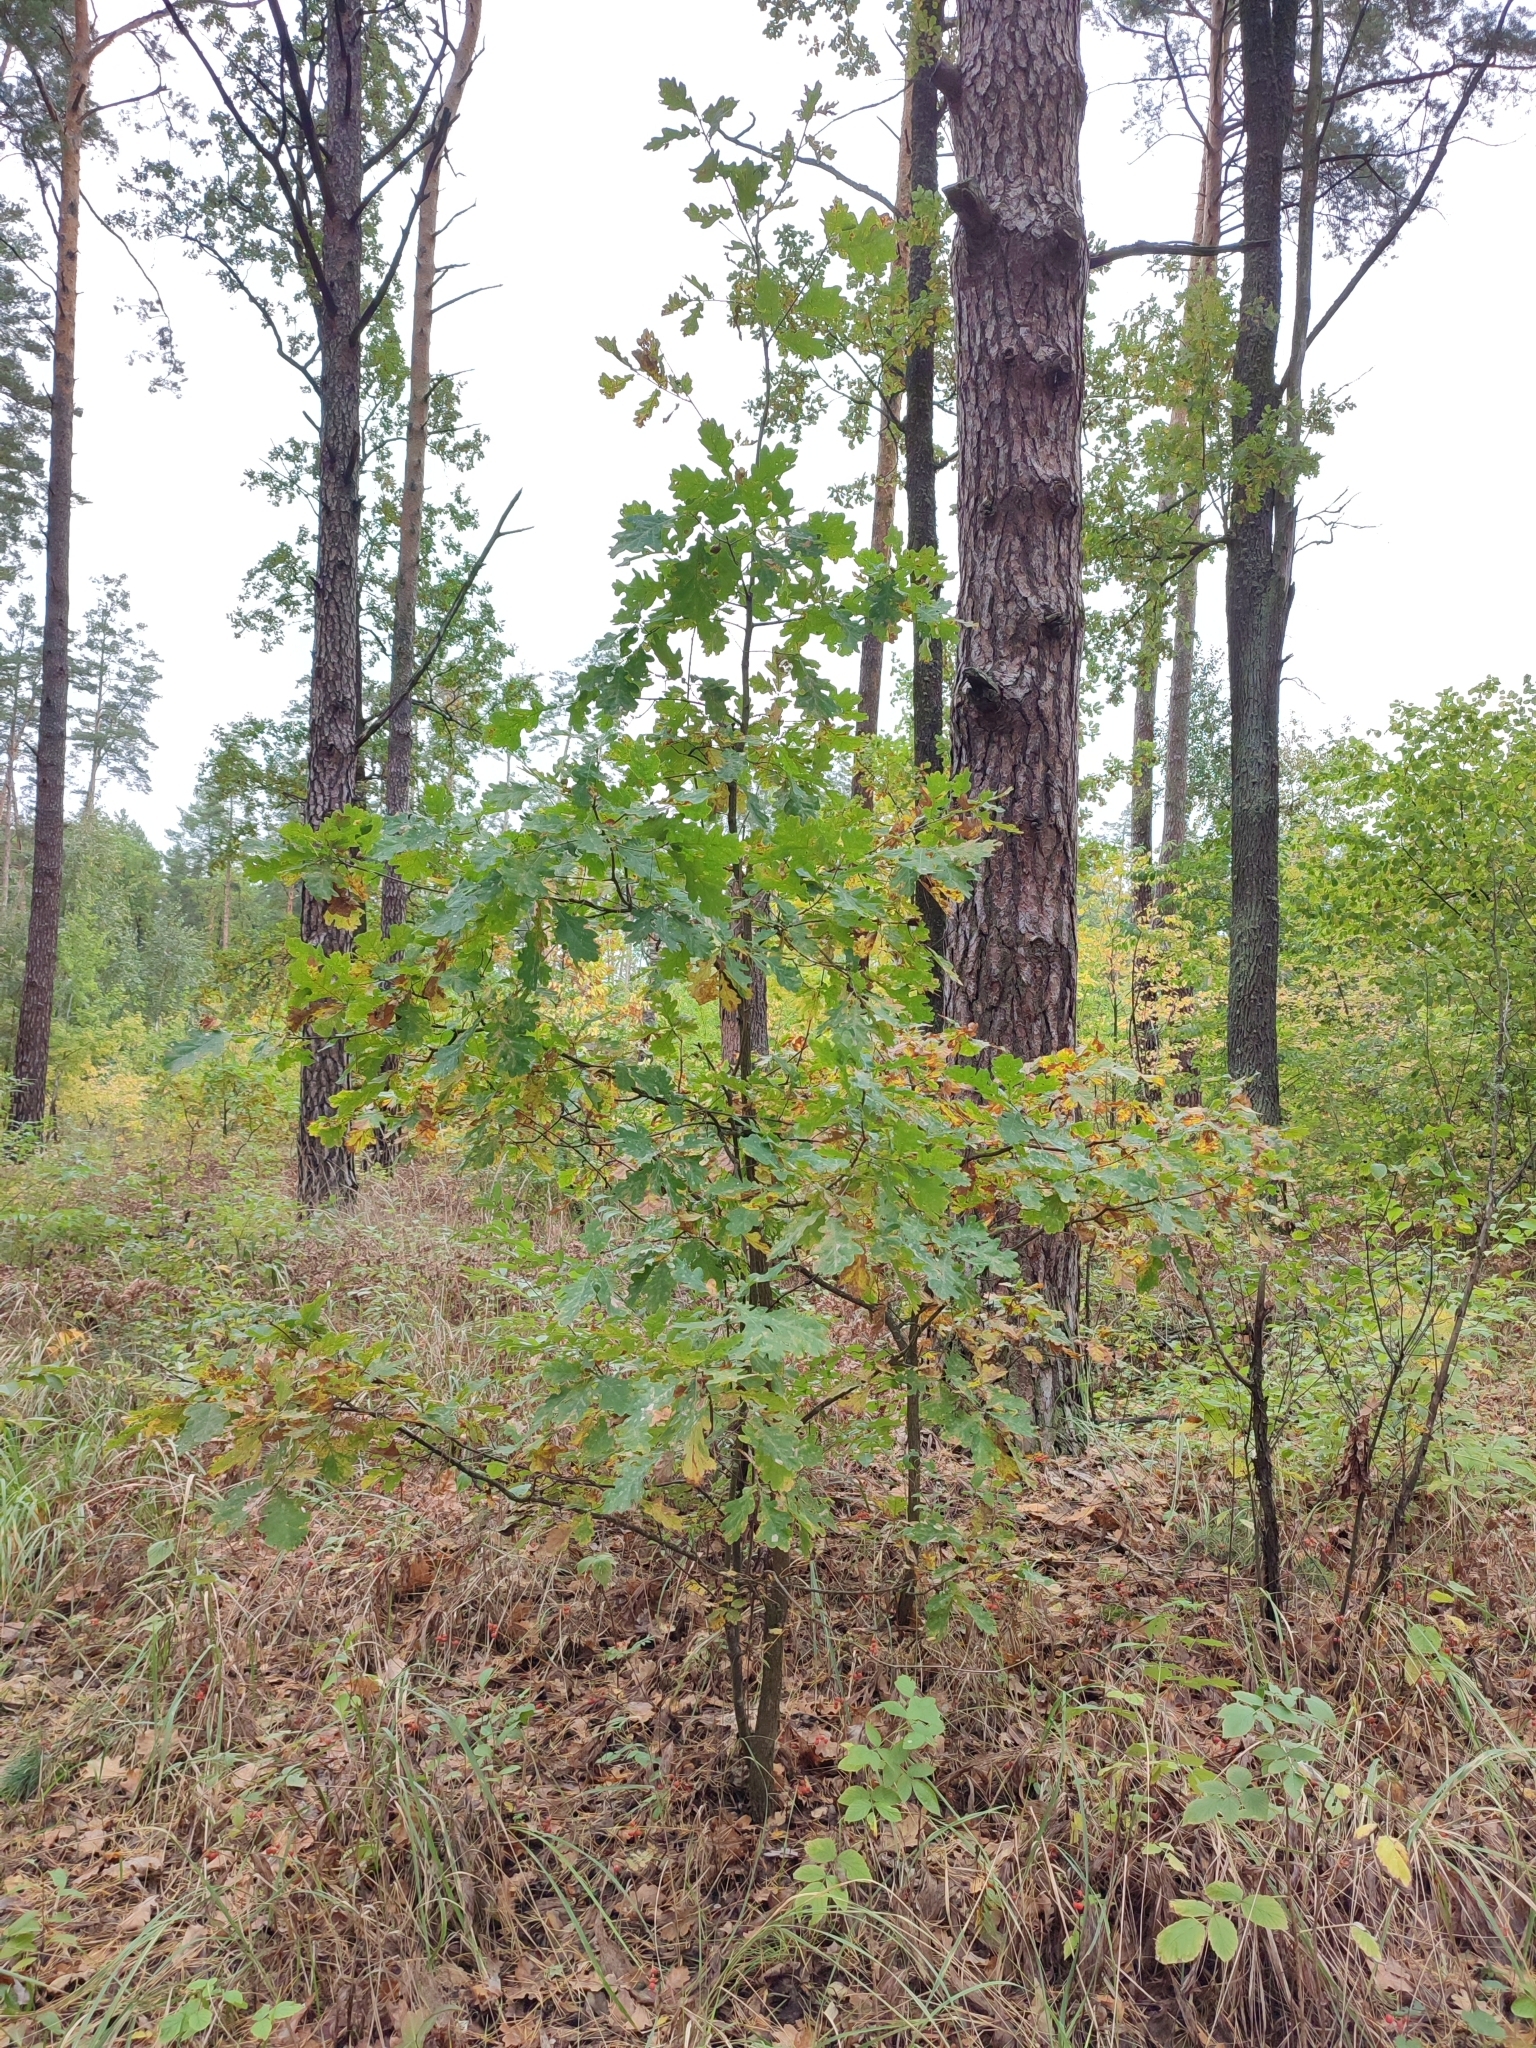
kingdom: Plantae
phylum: Tracheophyta
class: Magnoliopsida
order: Fagales
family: Fagaceae
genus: Quercus
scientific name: Quercus robur
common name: Pedunculate oak
